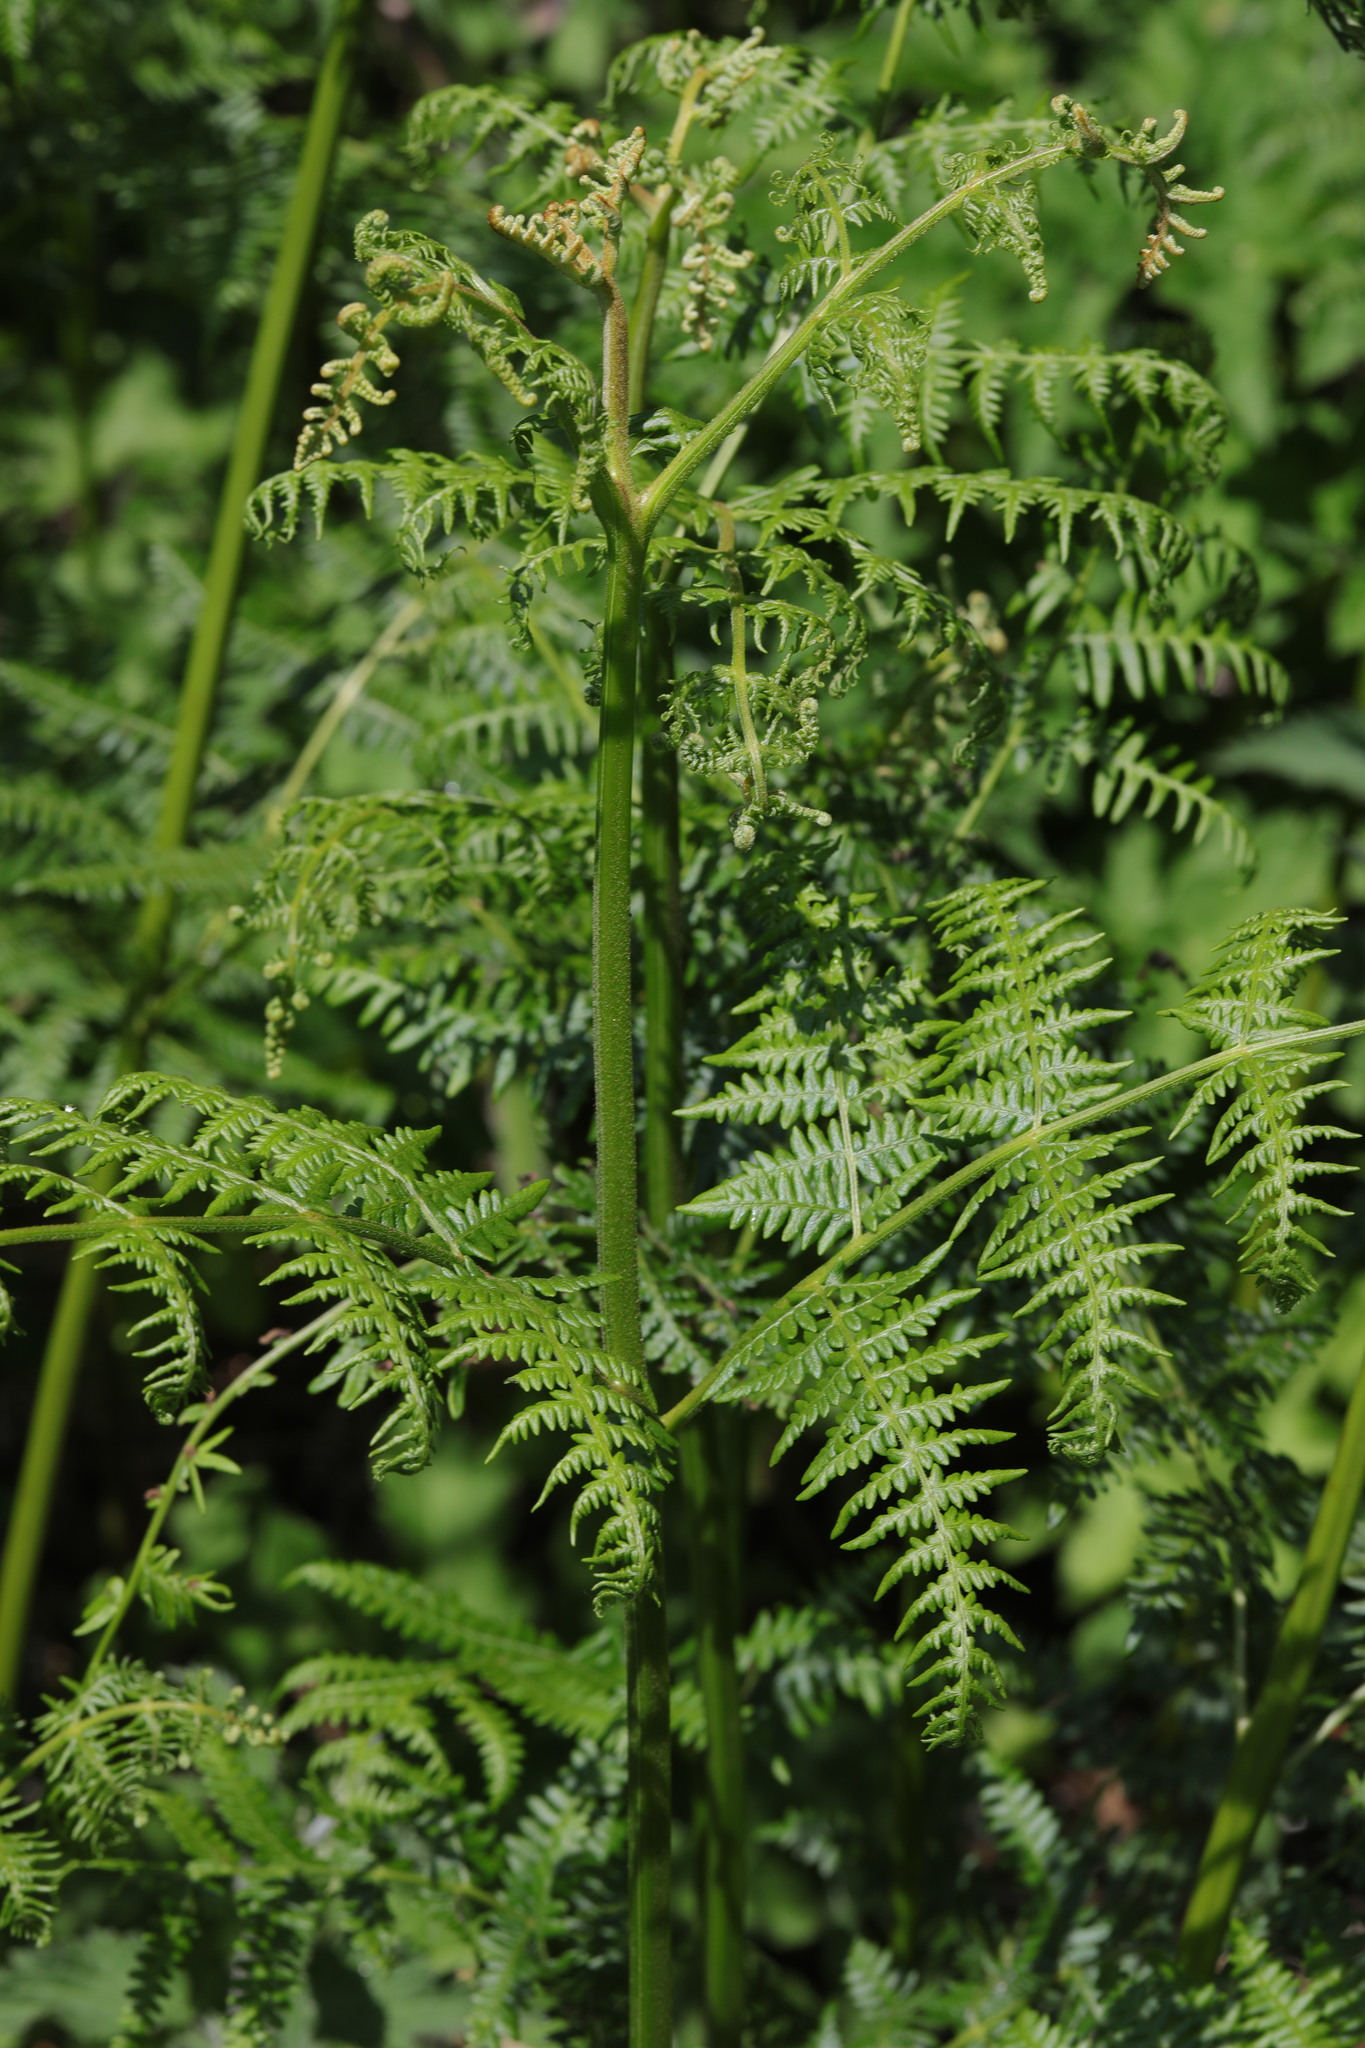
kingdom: Plantae
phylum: Tracheophyta
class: Polypodiopsida
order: Polypodiales
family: Dennstaedtiaceae
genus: Pteridium
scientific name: Pteridium aquilinum
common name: Bracken
